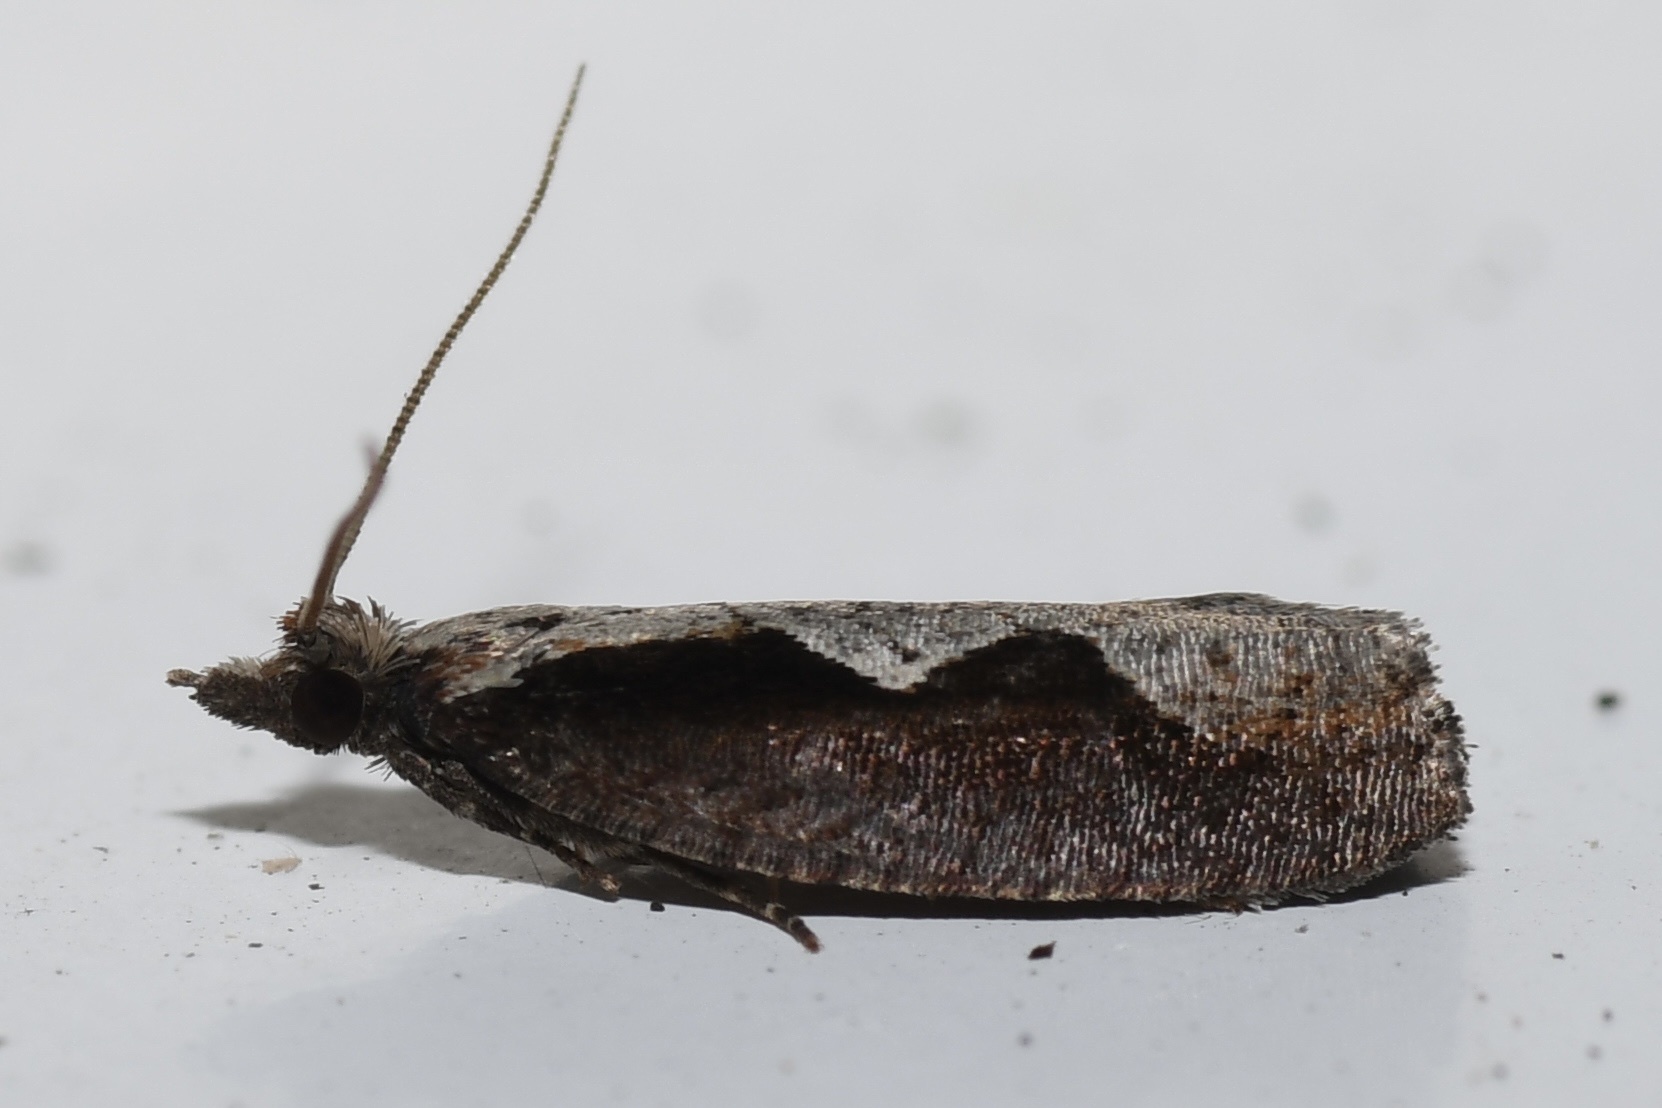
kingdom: Animalia
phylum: Arthropoda
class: Insecta
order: Lepidoptera
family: Tortricidae
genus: Epinotia
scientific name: Epinotia lindana
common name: Diamondback epinotia moth
